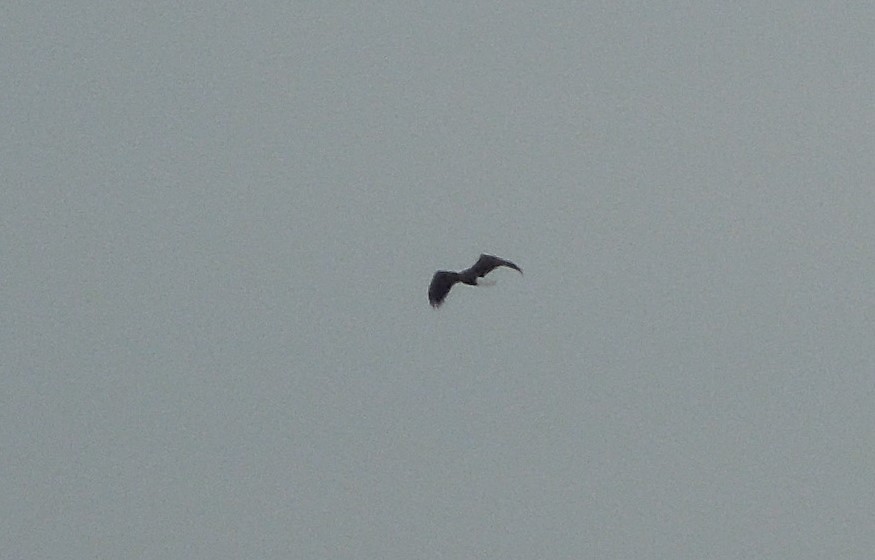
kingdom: Animalia
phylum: Chordata
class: Aves
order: Accipitriformes
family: Accipitridae
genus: Haliaeetus
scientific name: Haliaeetus leucocephalus
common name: Bald eagle
